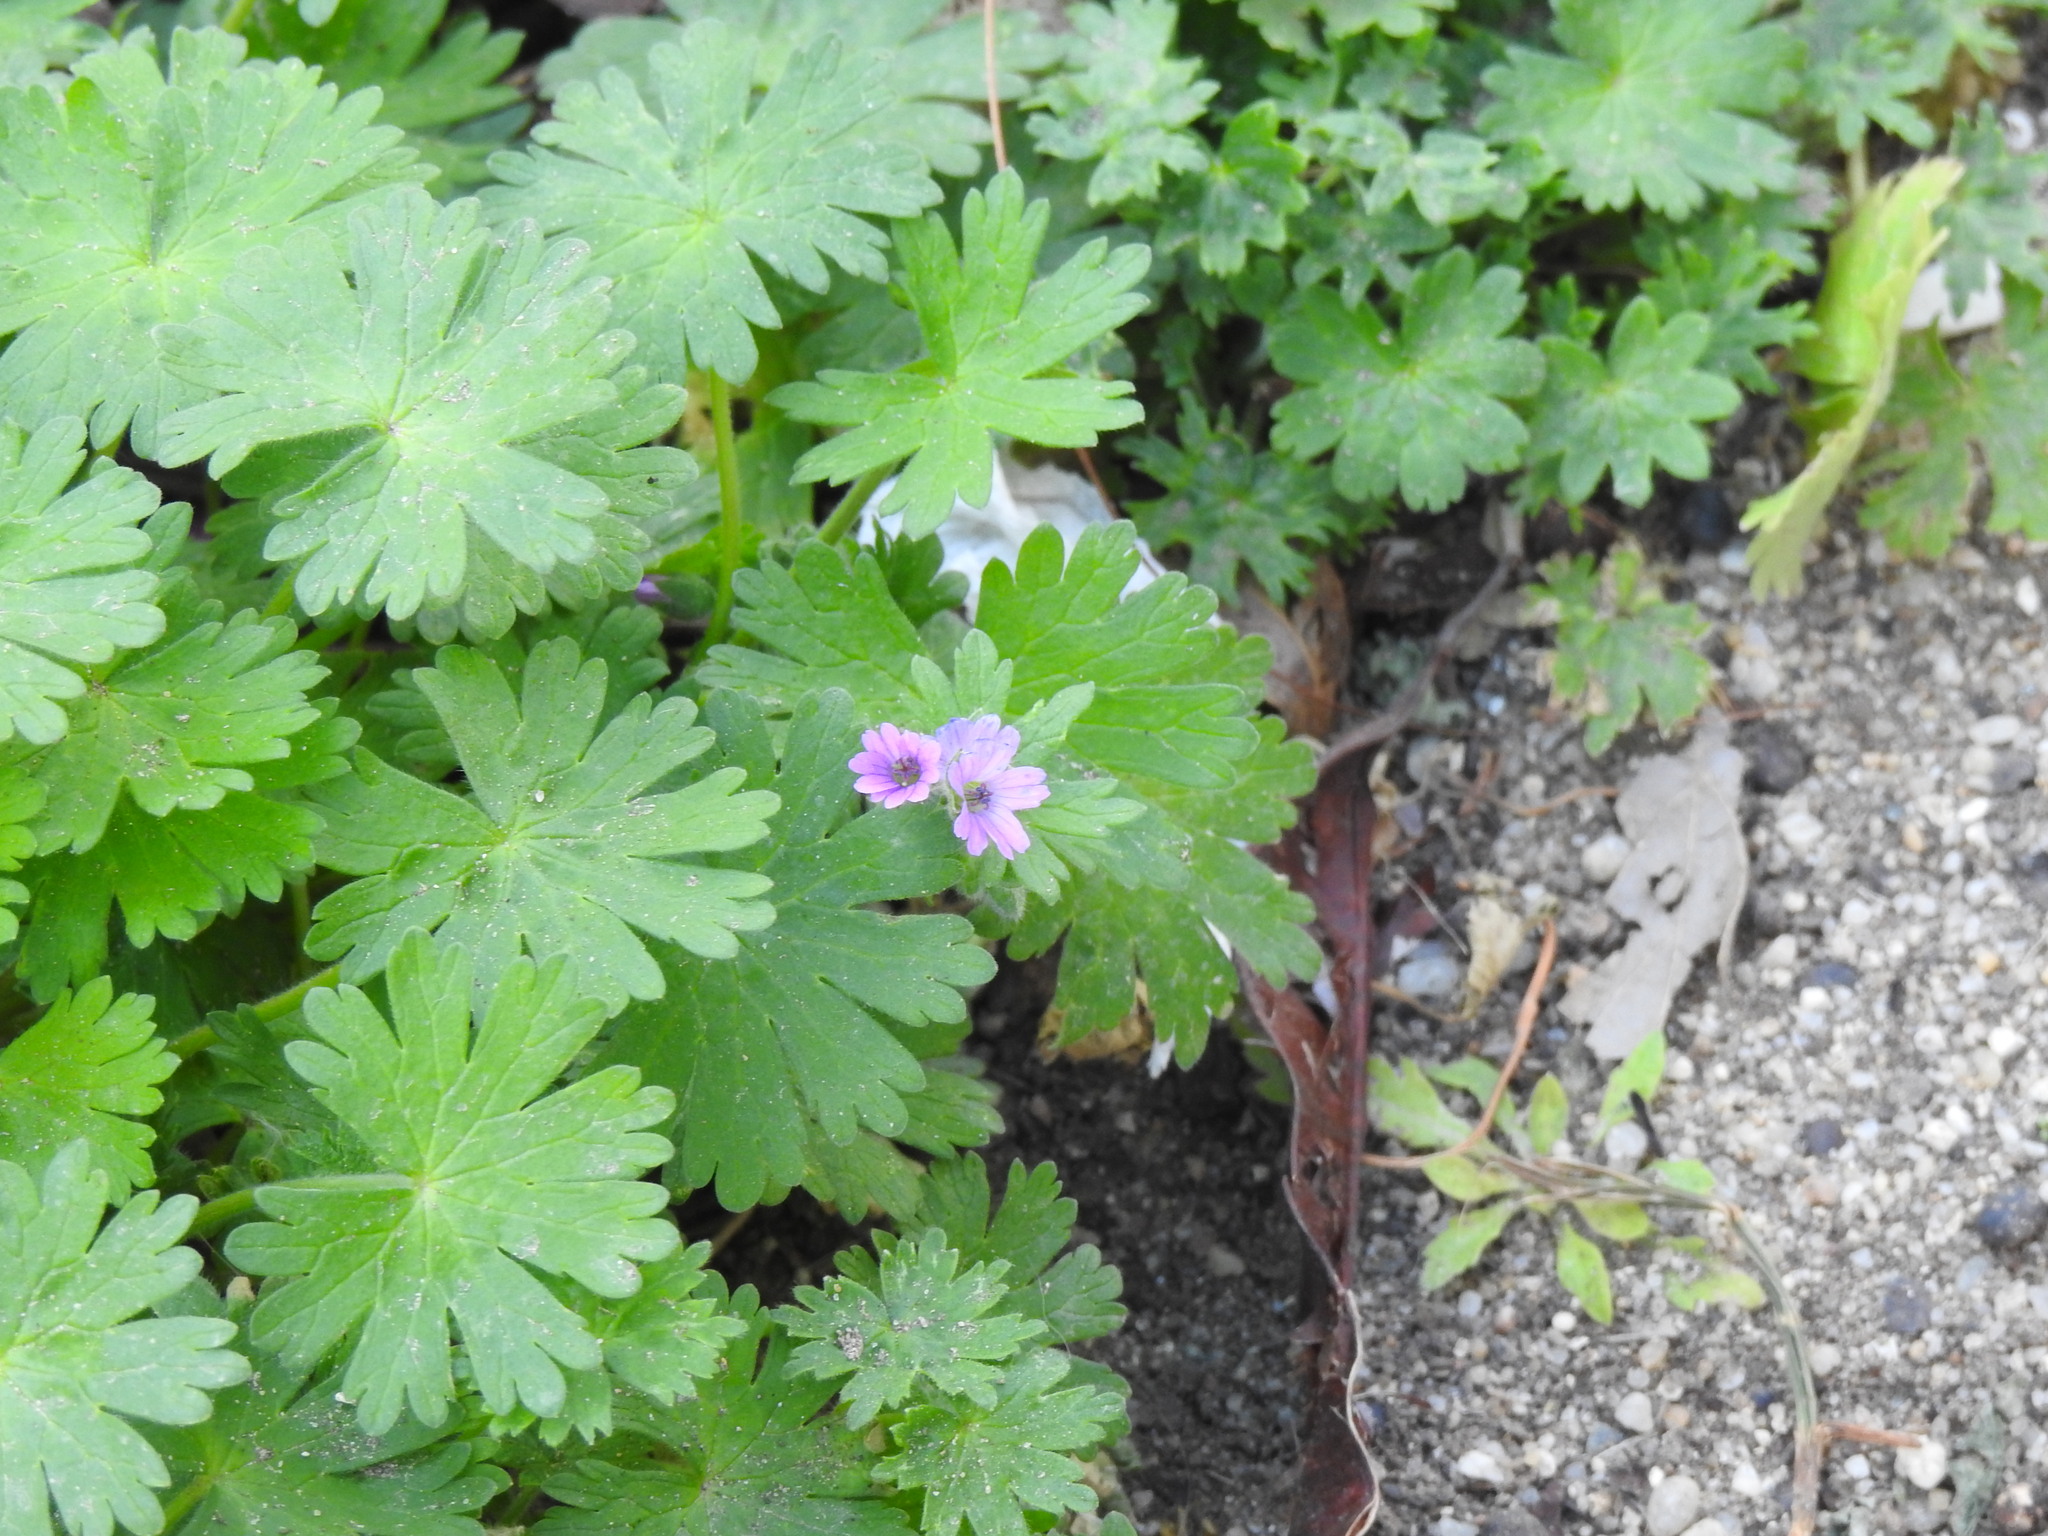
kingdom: Plantae
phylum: Tracheophyta
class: Magnoliopsida
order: Geraniales
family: Geraniaceae
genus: Geranium
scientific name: Geranium molle
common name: Dove's-foot crane's-bill
